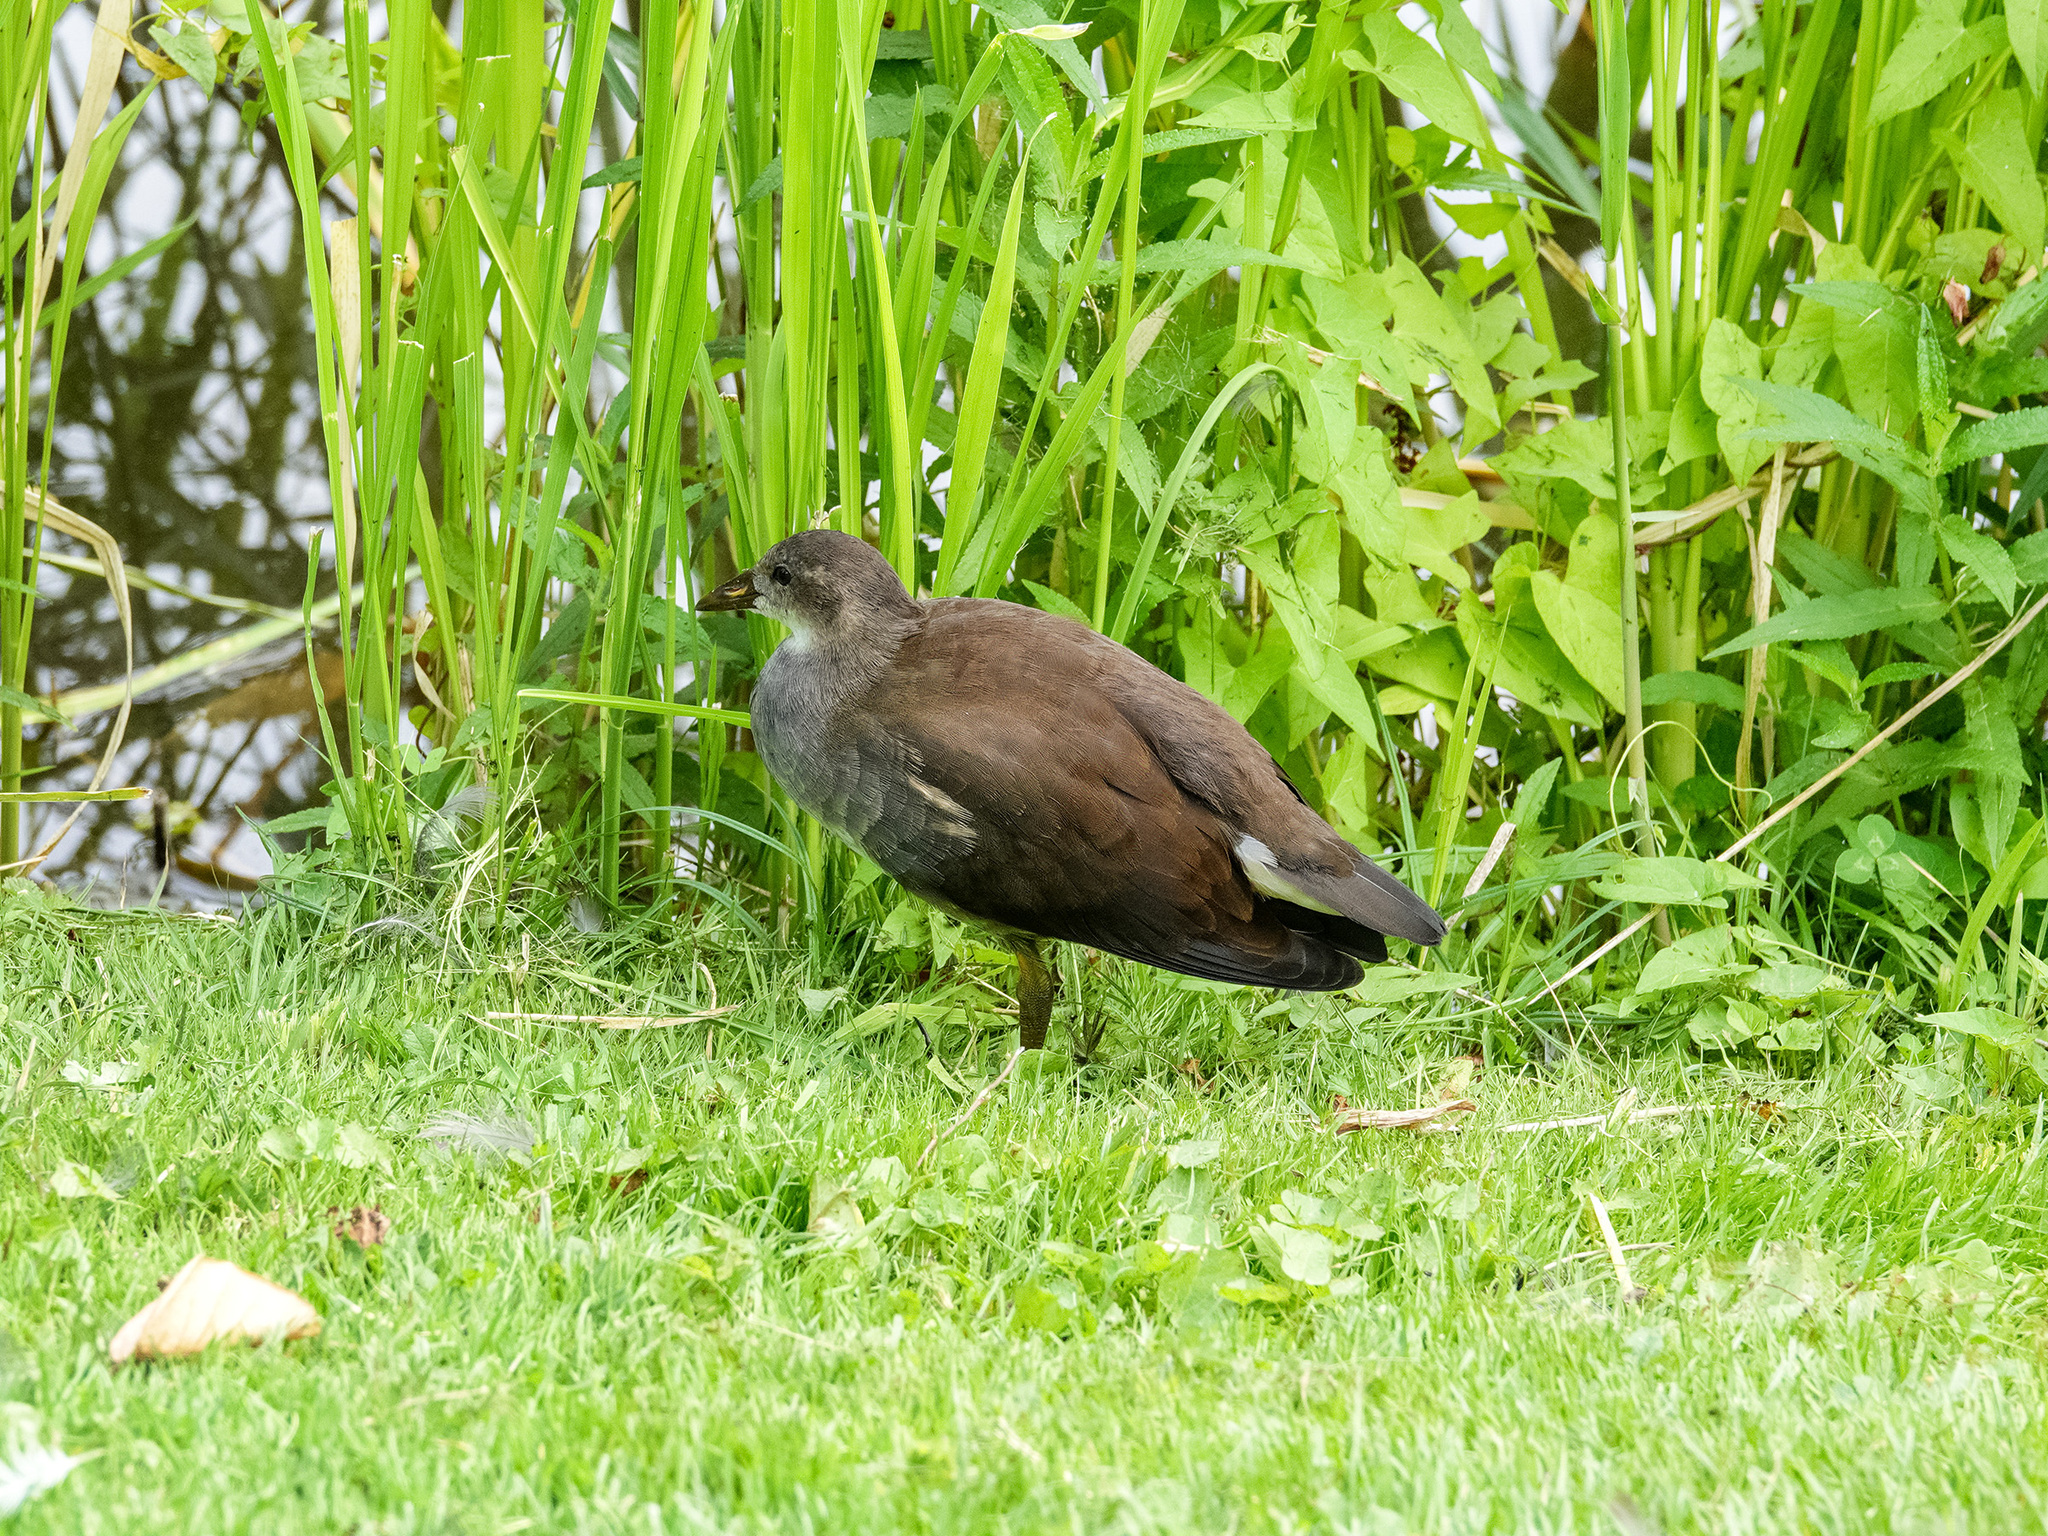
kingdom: Animalia
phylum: Chordata
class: Aves
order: Gruiformes
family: Rallidae
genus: Gallinula
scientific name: Gallinula chloropus
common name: Common moorhen
